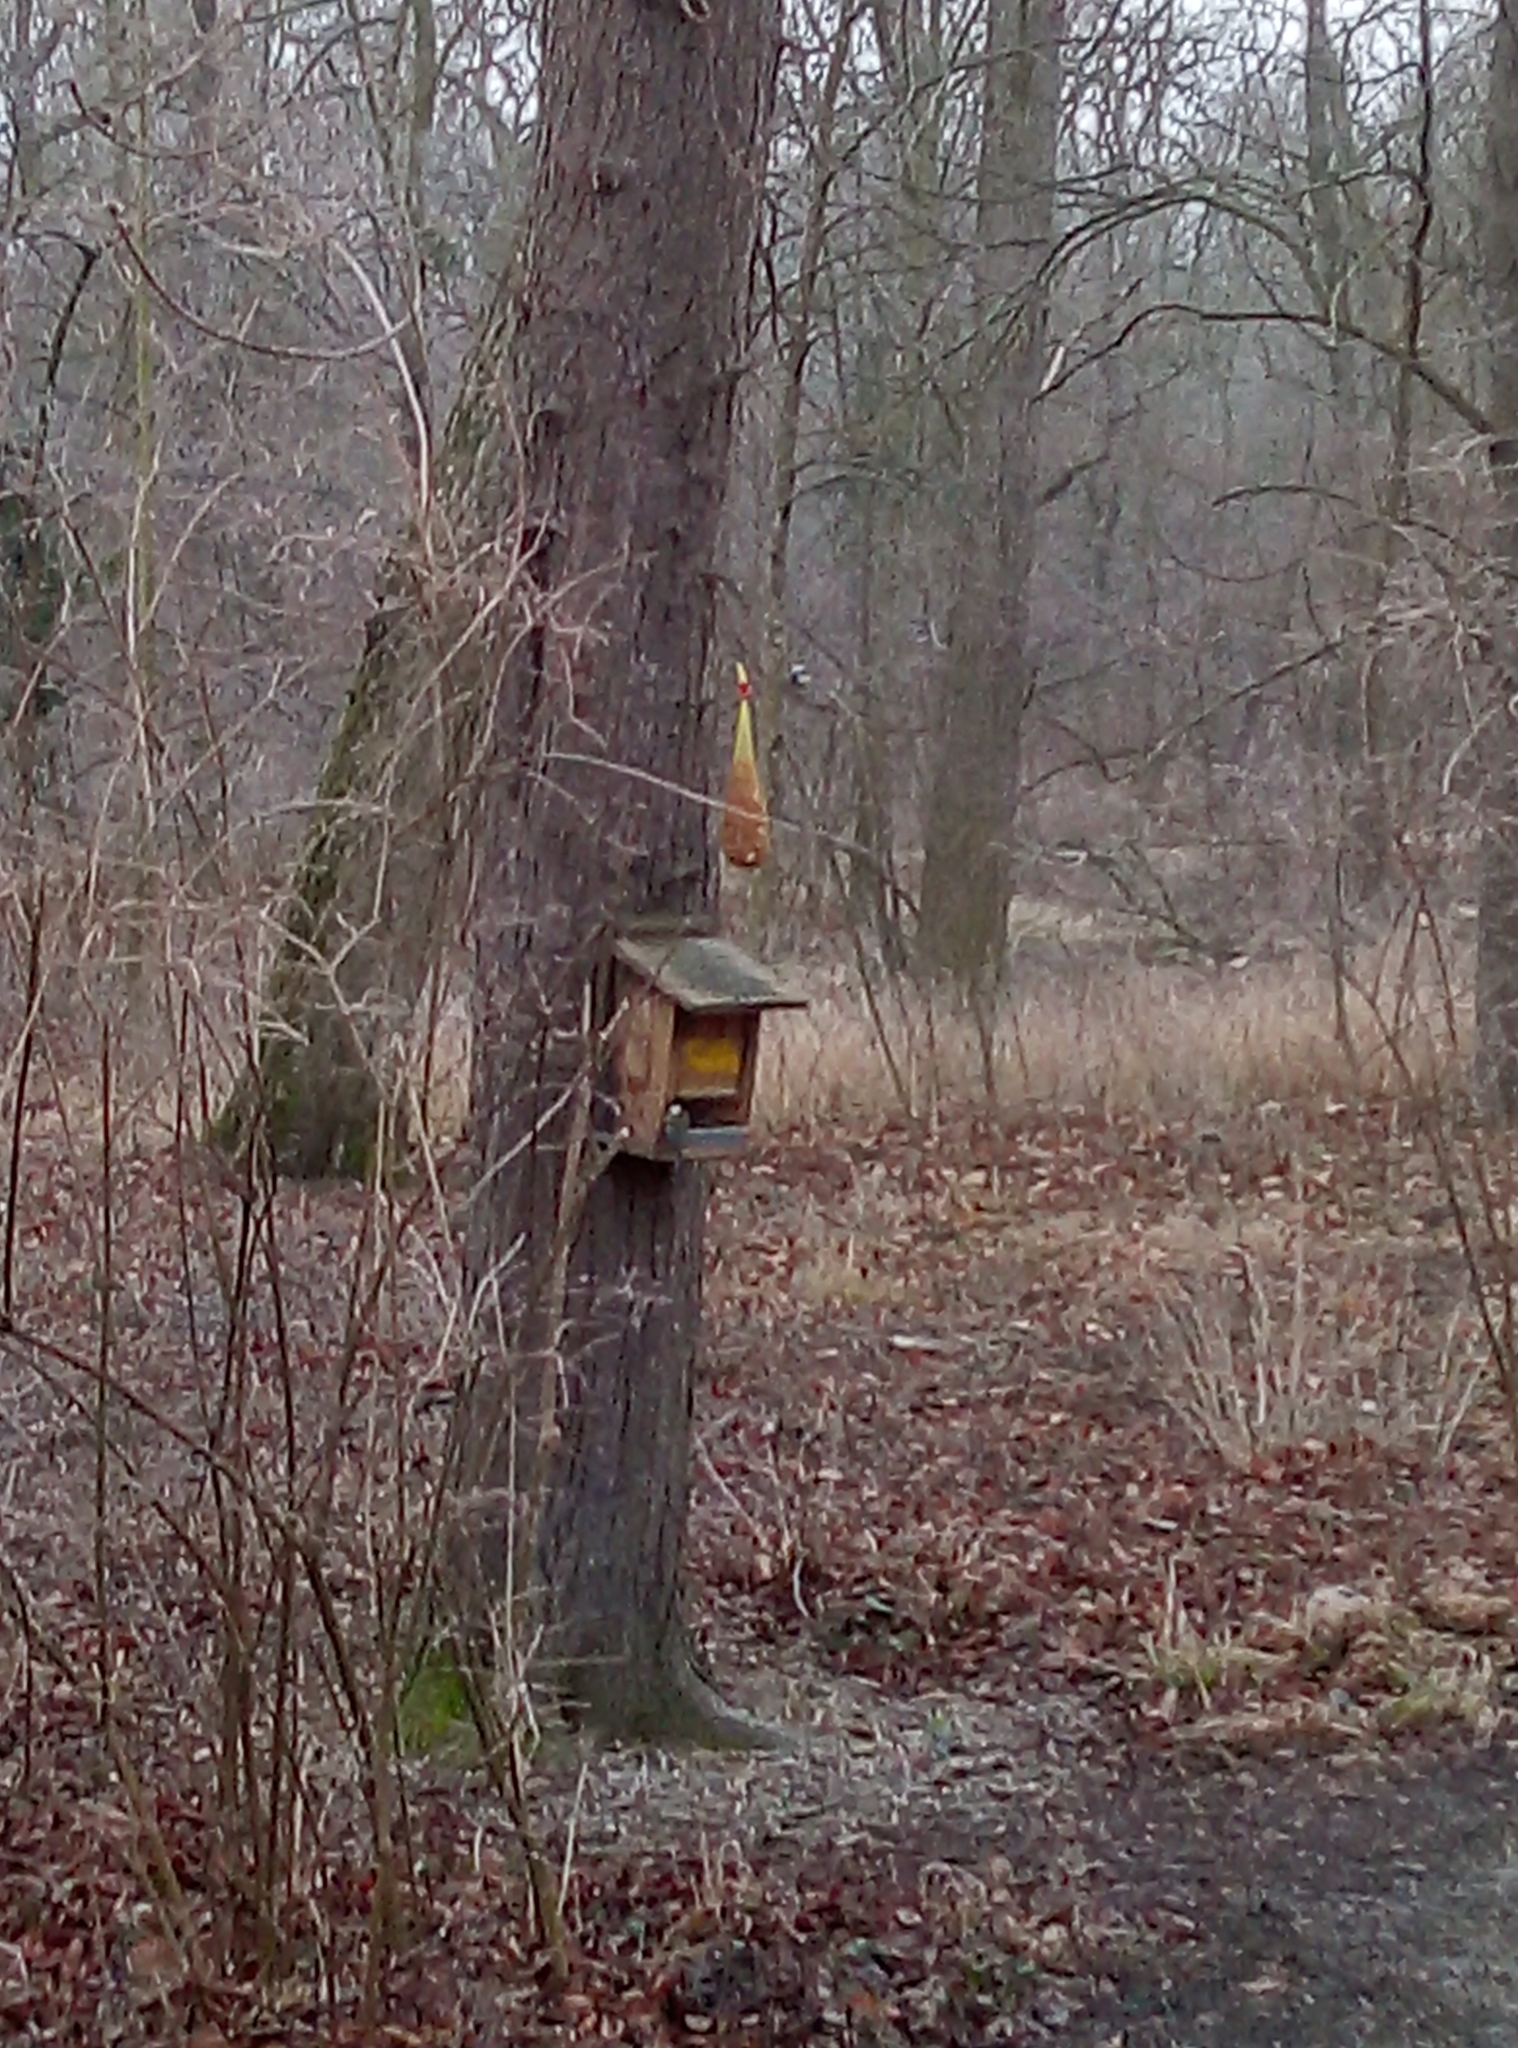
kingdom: Animalia
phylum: Chordata
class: Aves
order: Passeriformes
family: Paridae
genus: Parus
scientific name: Parus major
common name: Great tit
